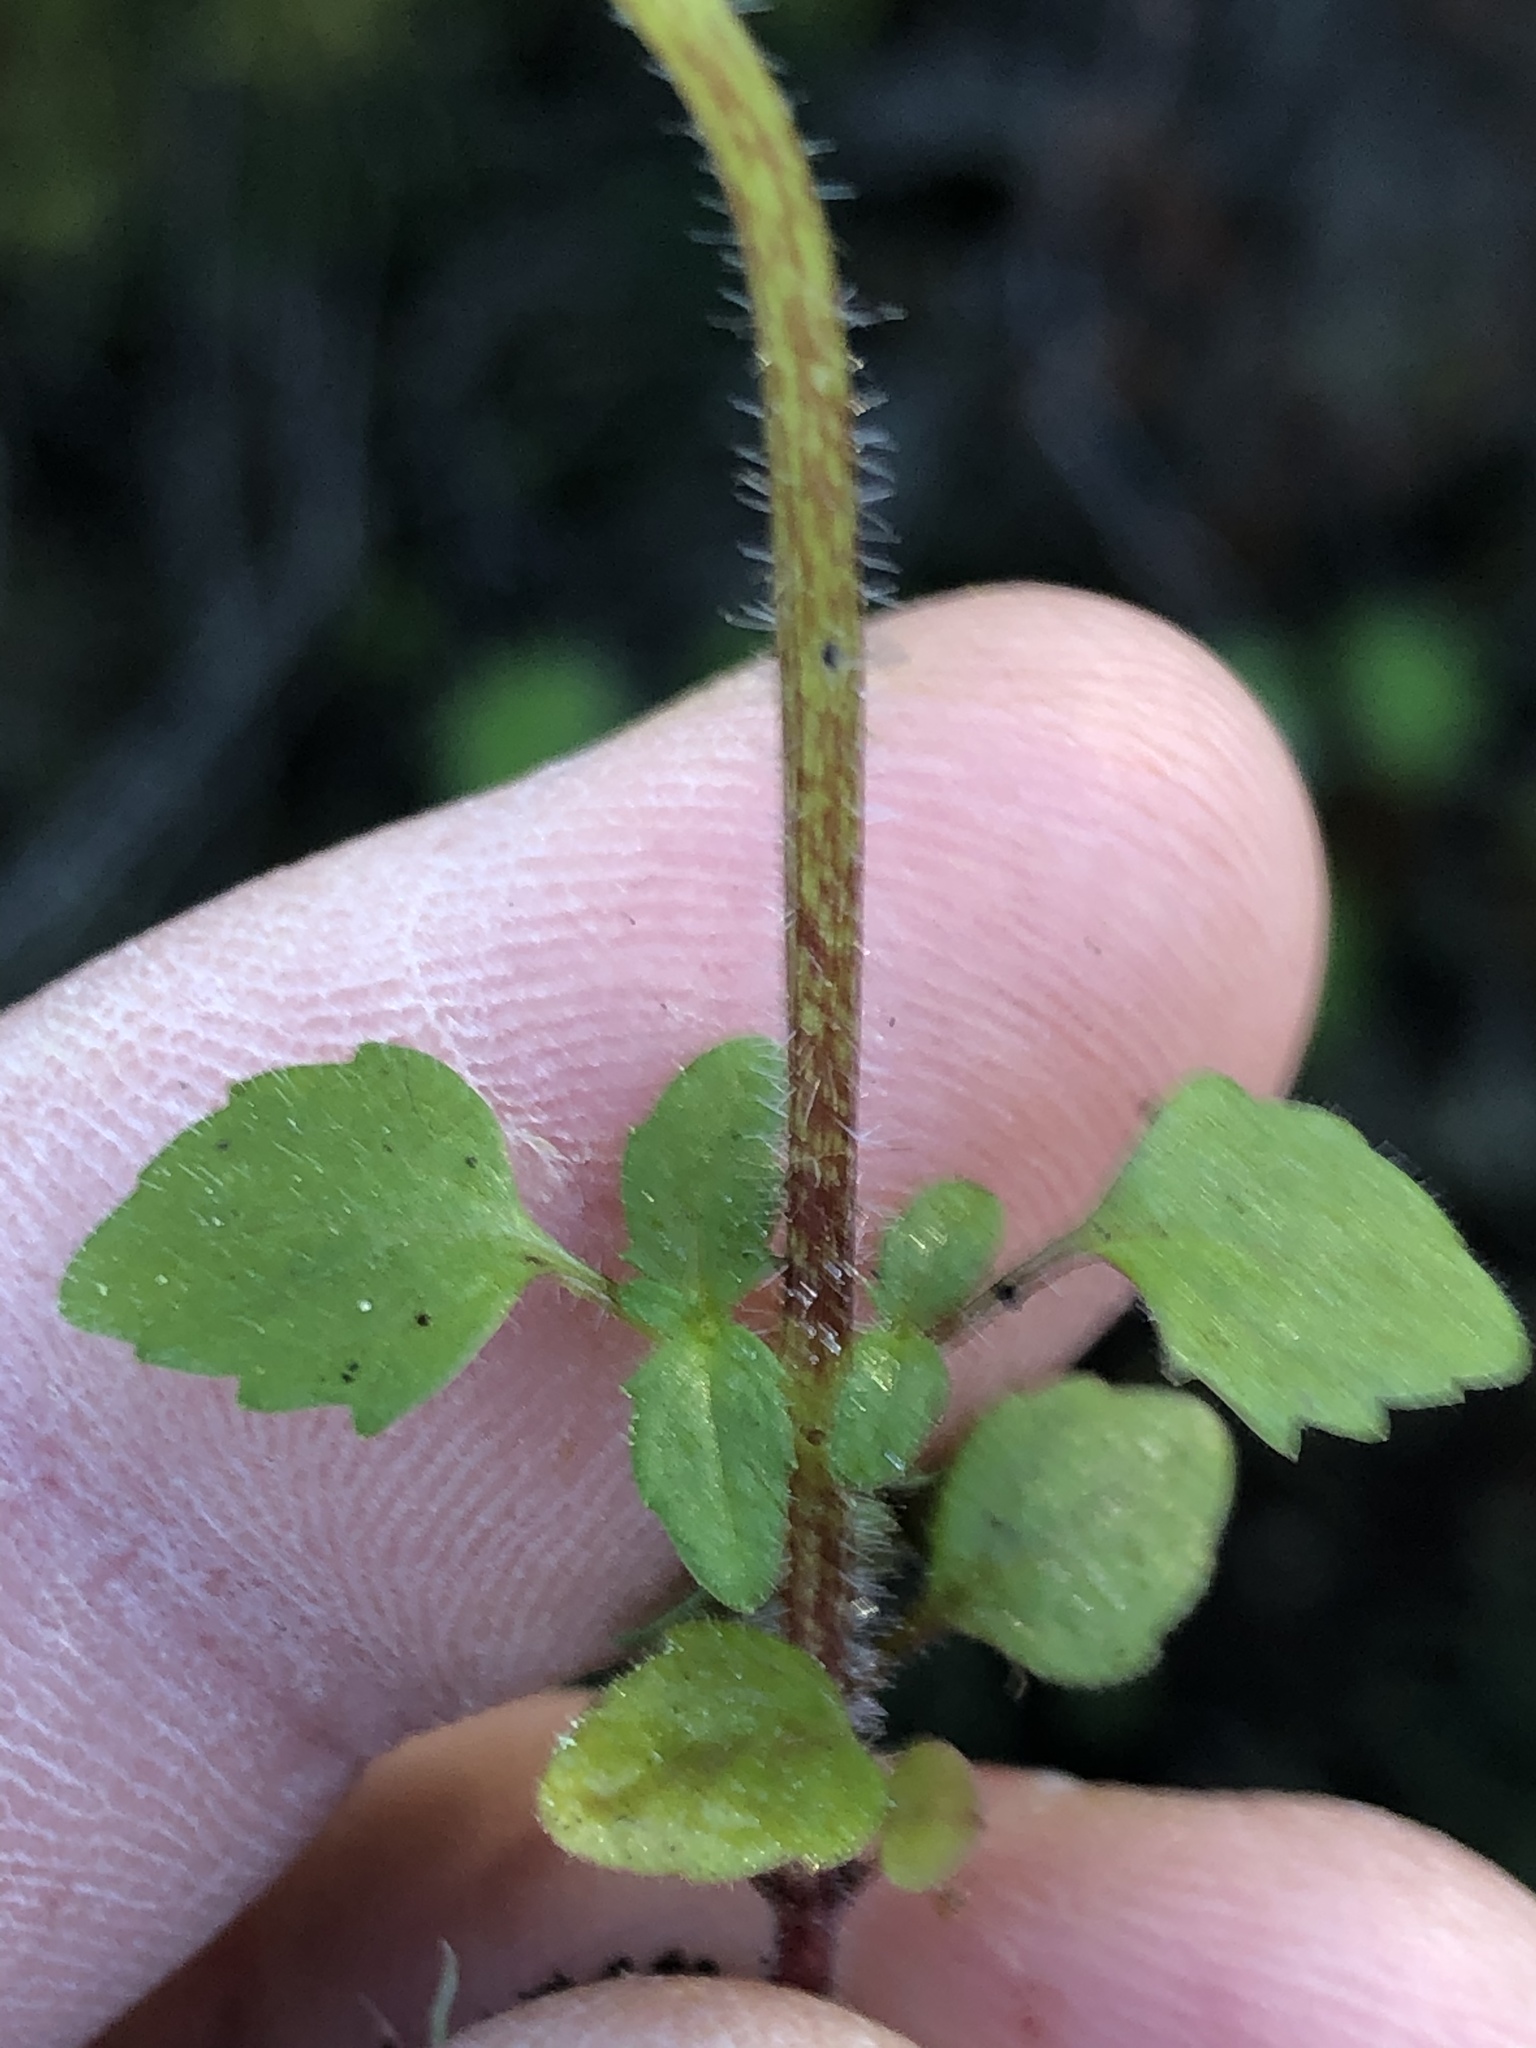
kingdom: Plantae
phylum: Tracheophyta
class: Magnoliopsida
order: Lamiales
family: Scrophulariaceae
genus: Hemimeris
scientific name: Hemimeris racemosa
